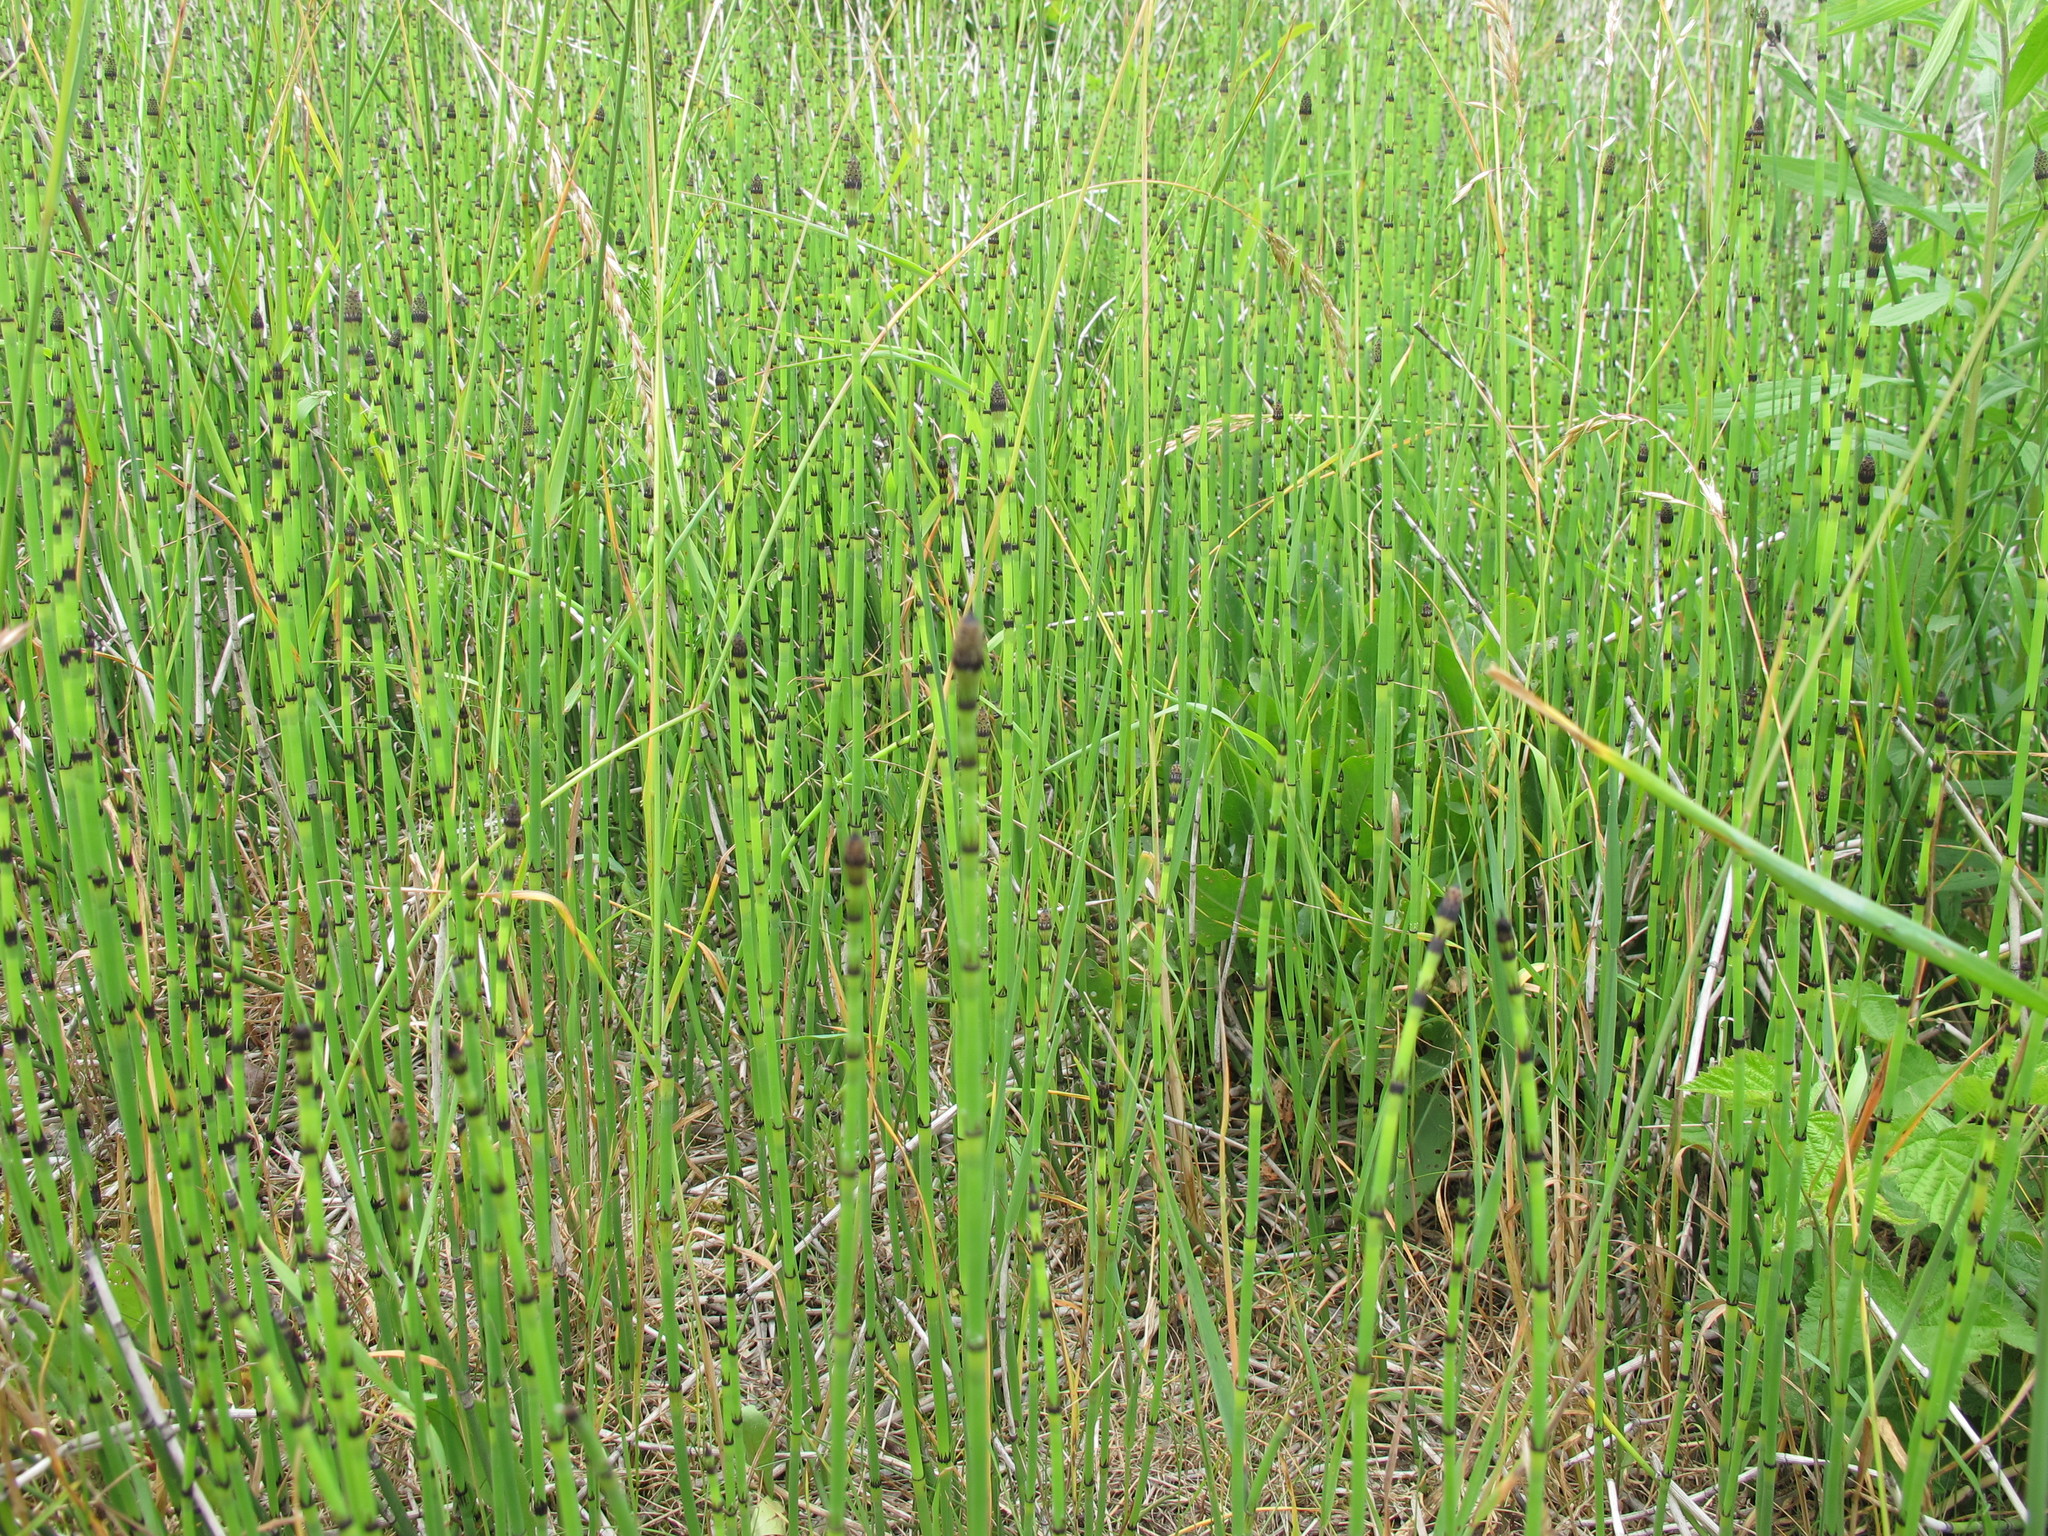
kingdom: Plantae
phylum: Tracheophyta
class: Polypodiopsida
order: Equisetales
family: Equisetaceae
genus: Equisetum
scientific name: Equisetum variegatum
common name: Variegated horsetail
